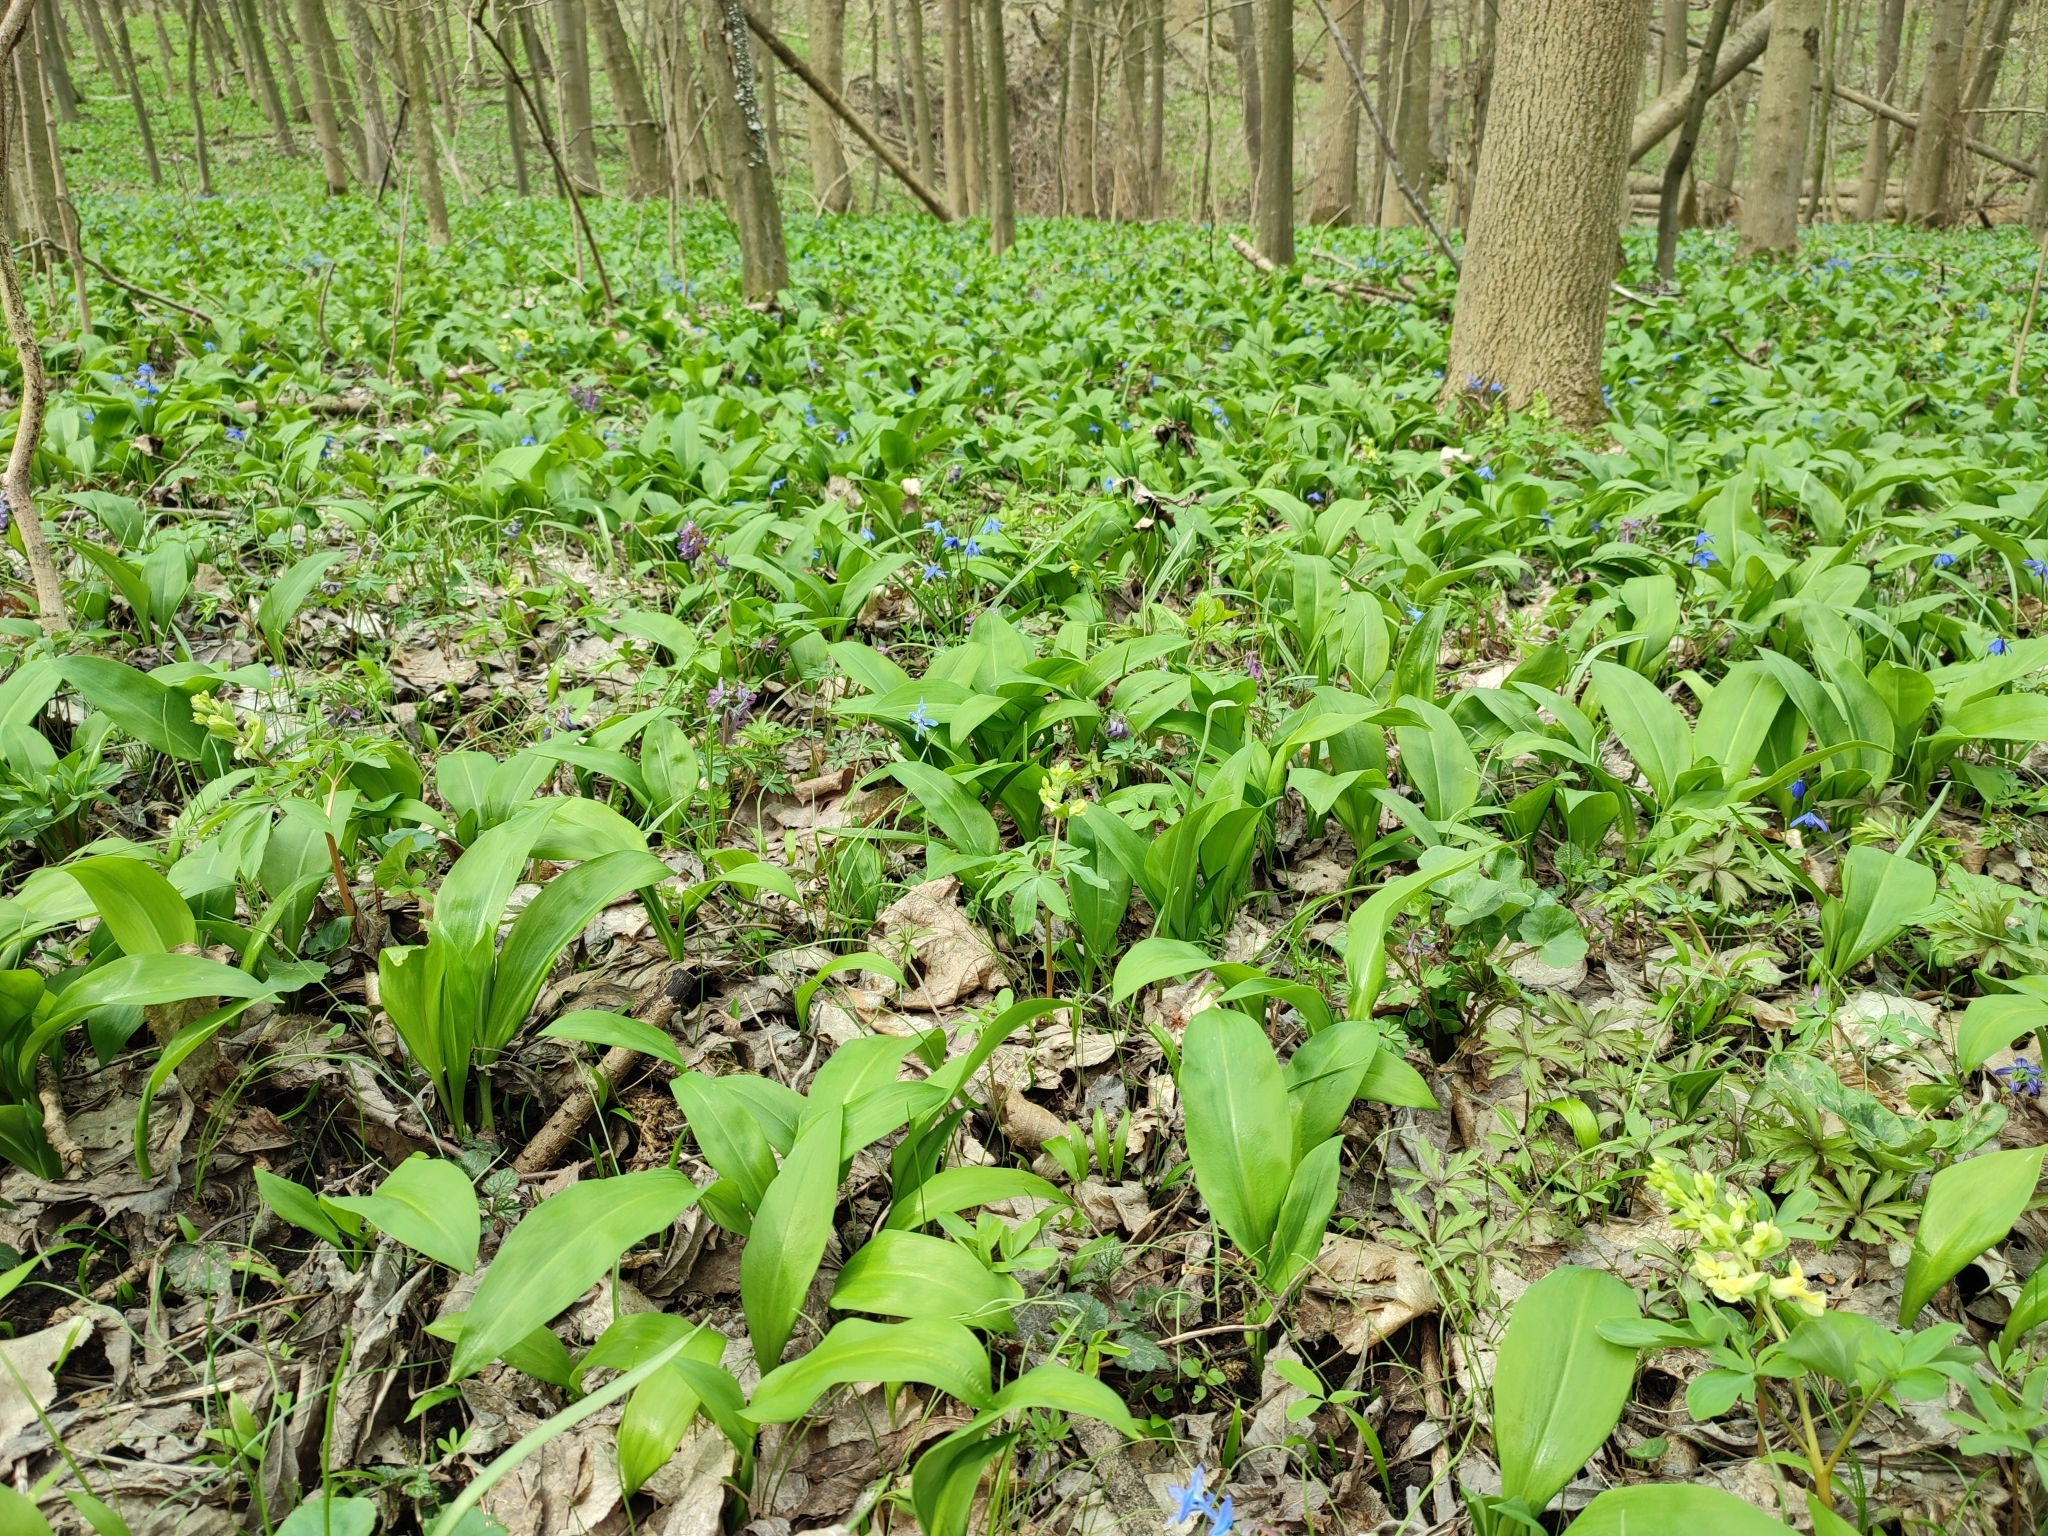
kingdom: Plantae
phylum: Tracheophyta
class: Liliopsida
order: Asparagales
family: Amaryllidaceae
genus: Allium
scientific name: Allium ursinum
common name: Ramsons
